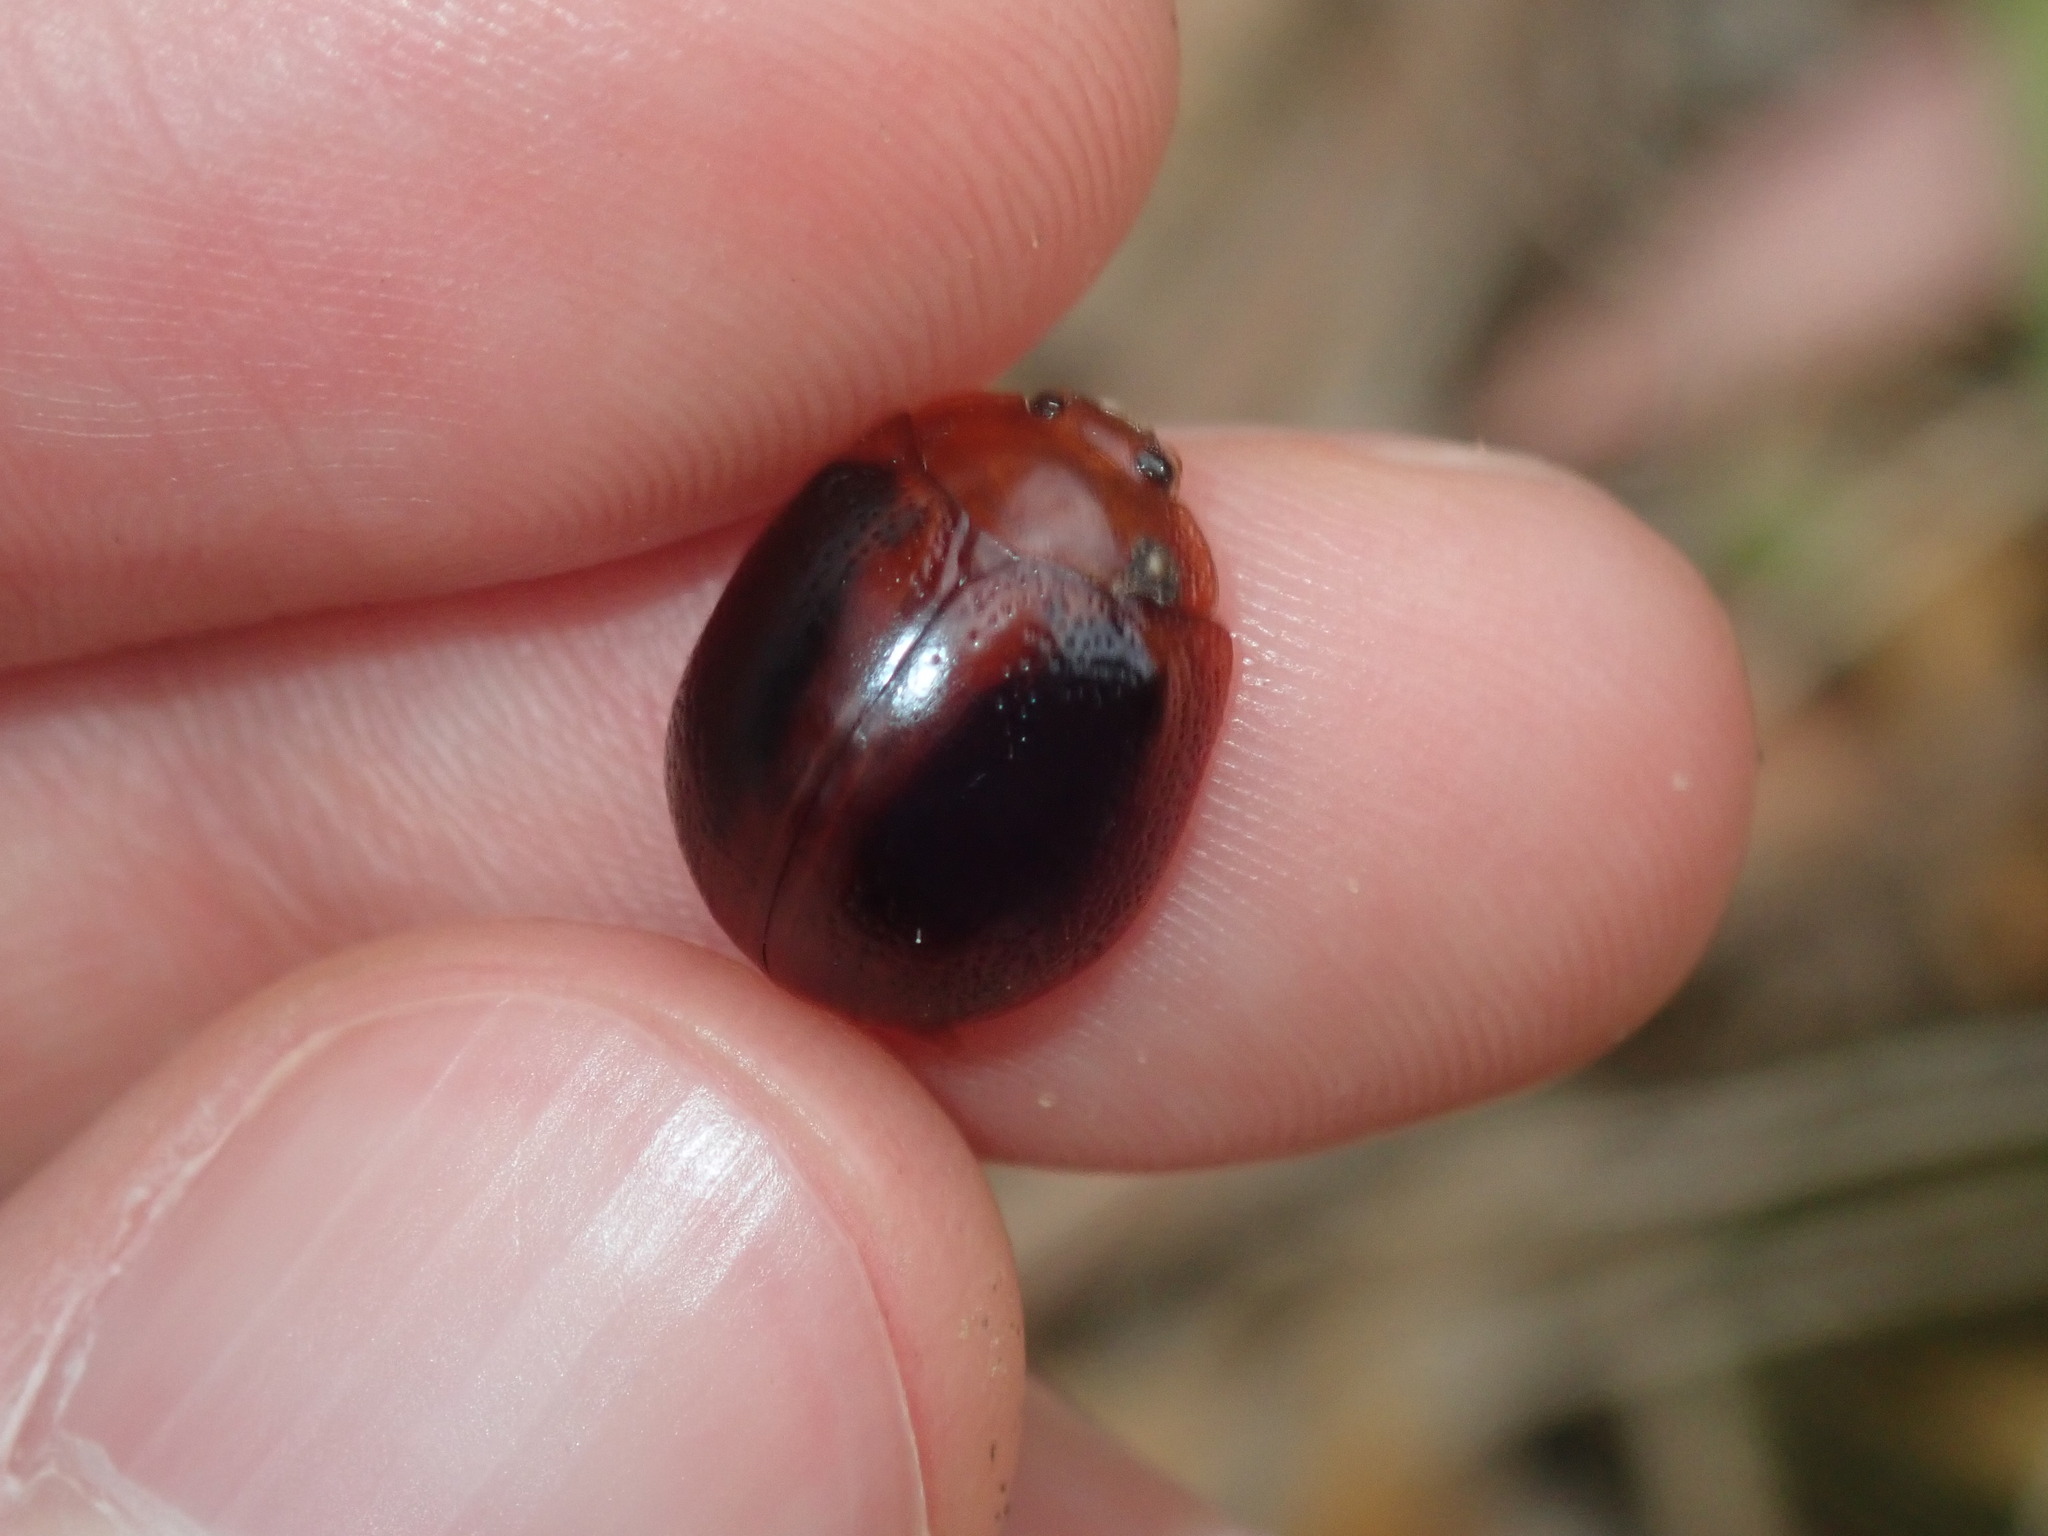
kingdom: Animalia
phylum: Arthropoda
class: Insecta
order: Coleoptera
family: Chrysomelidae
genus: Dicranosterna
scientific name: Dicranosterna
